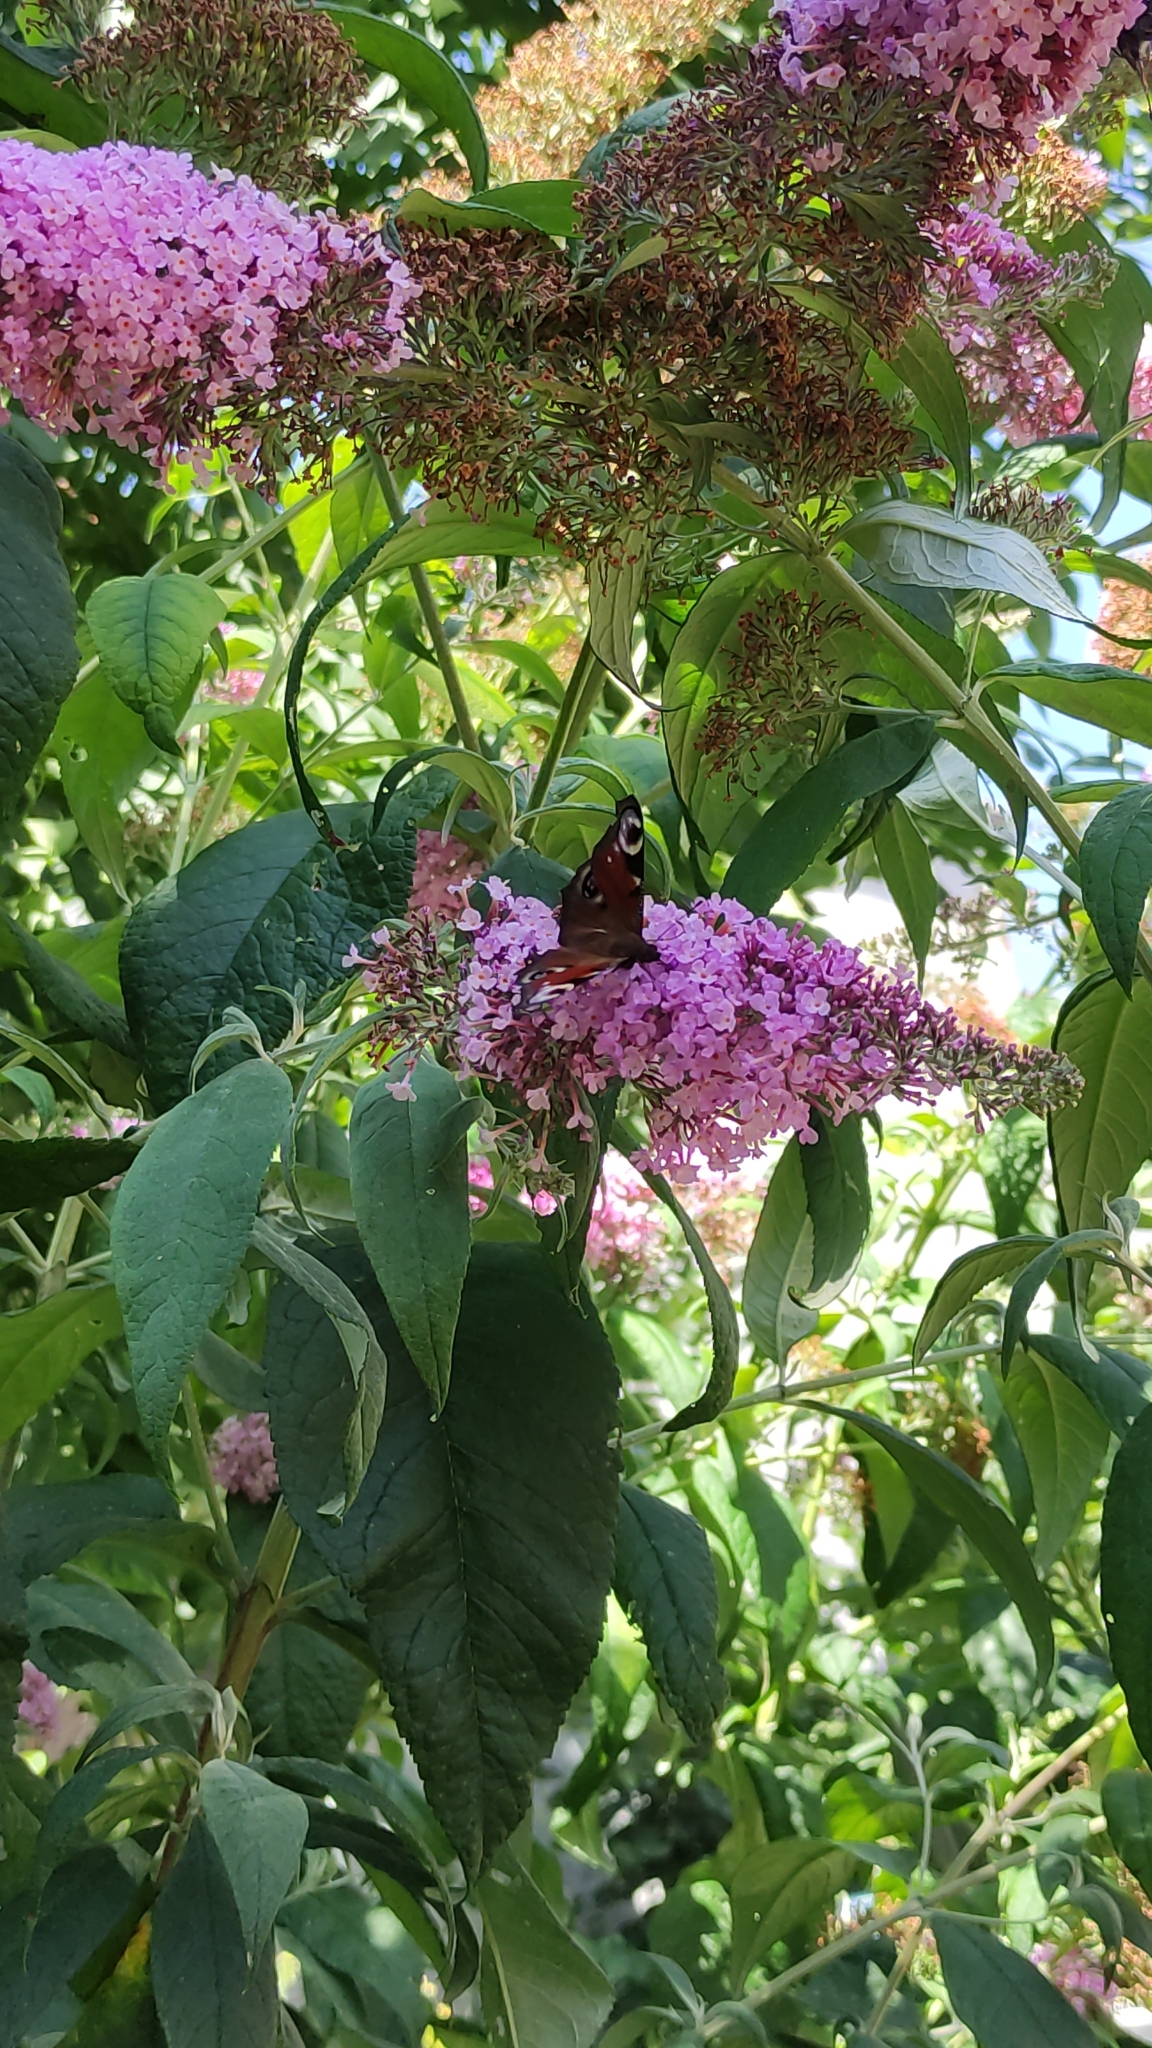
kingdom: Animalia
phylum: Arthropoda
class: Insecta
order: Lepidoptera
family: Nymphalidae
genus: Aglais
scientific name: Aglais io
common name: Peacock
